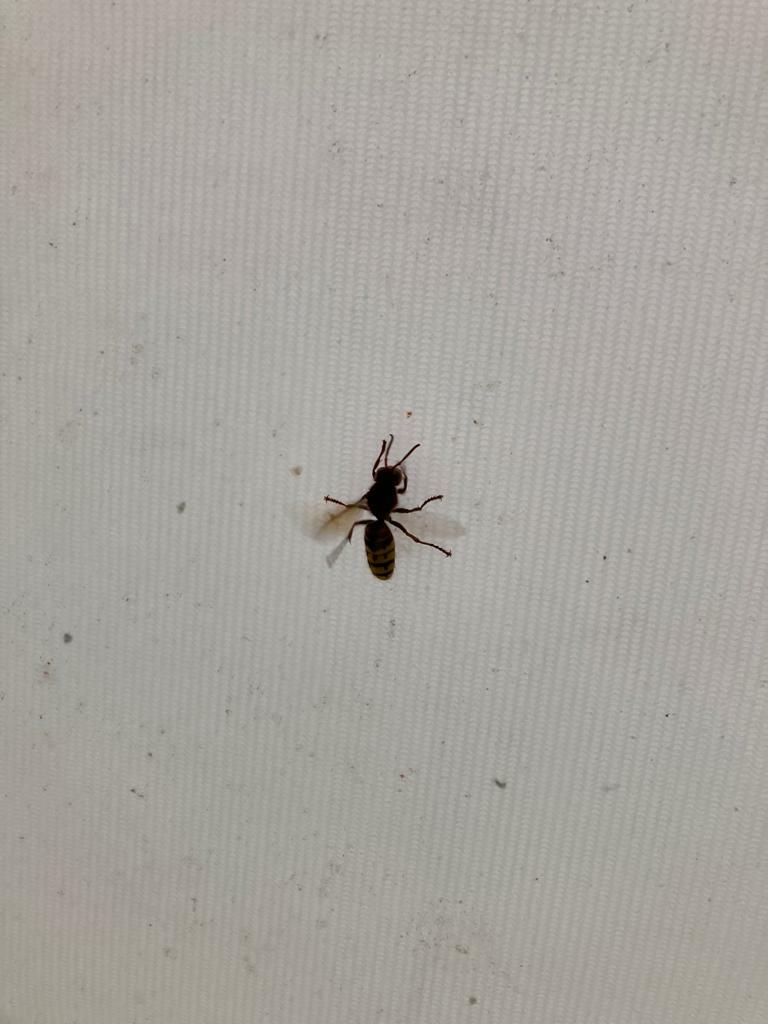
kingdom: Animalia
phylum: Arthropoda
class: Insecta
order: Hymenoptera
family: Vespidae
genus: Vespa
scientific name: Vespa crabro
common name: Hornet
